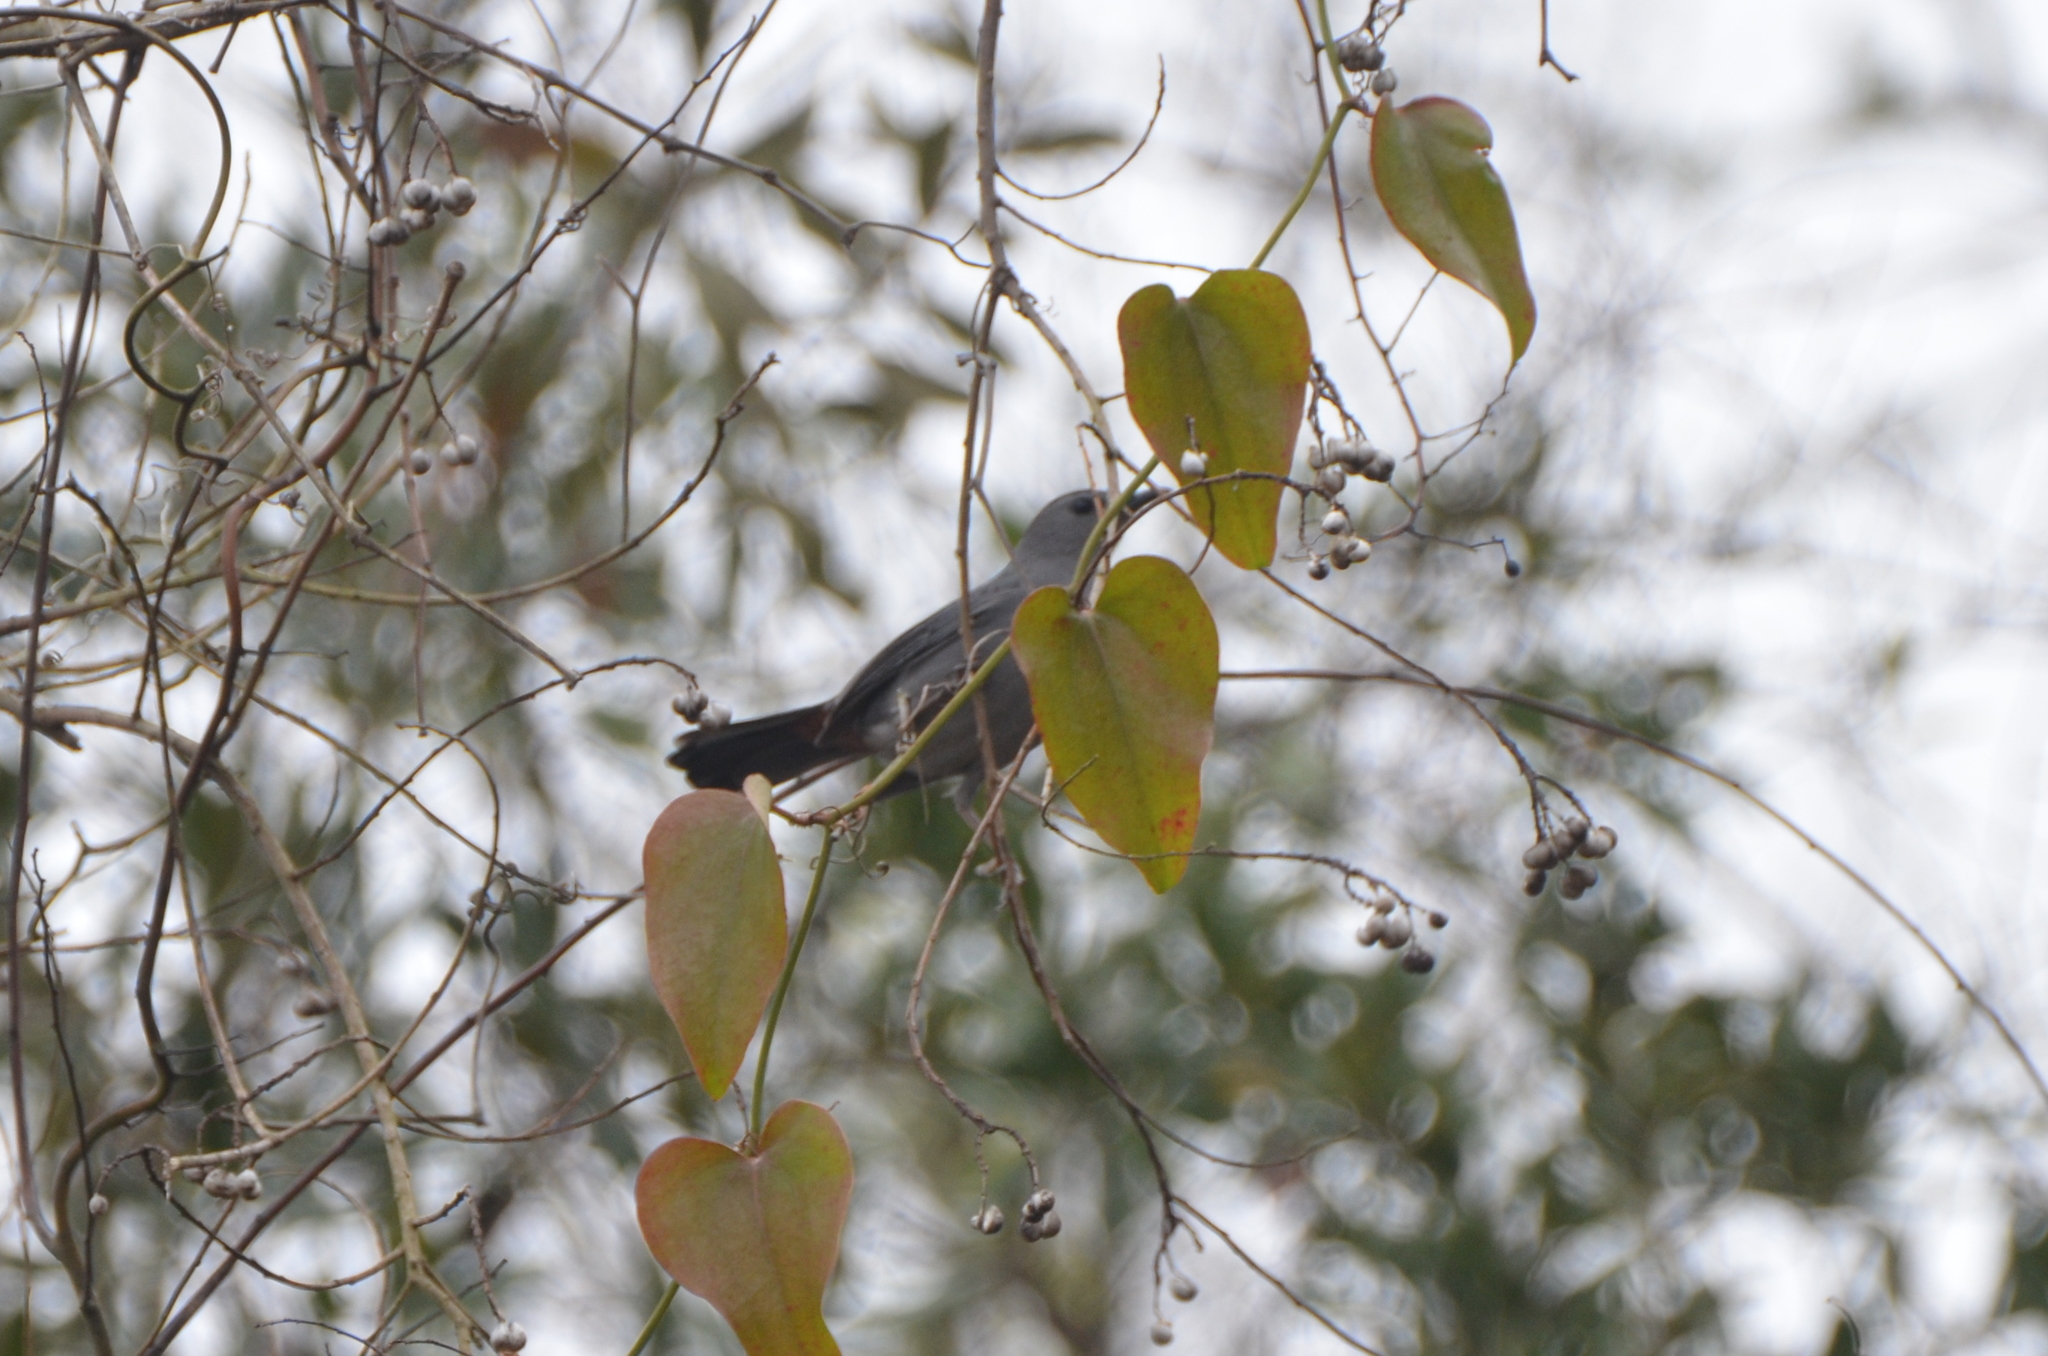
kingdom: Animalia
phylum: Chordata
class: Aves
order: Passeriformes
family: Mimidae
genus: Dumetella
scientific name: Dumetella carolinensis
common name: Gray catbird
